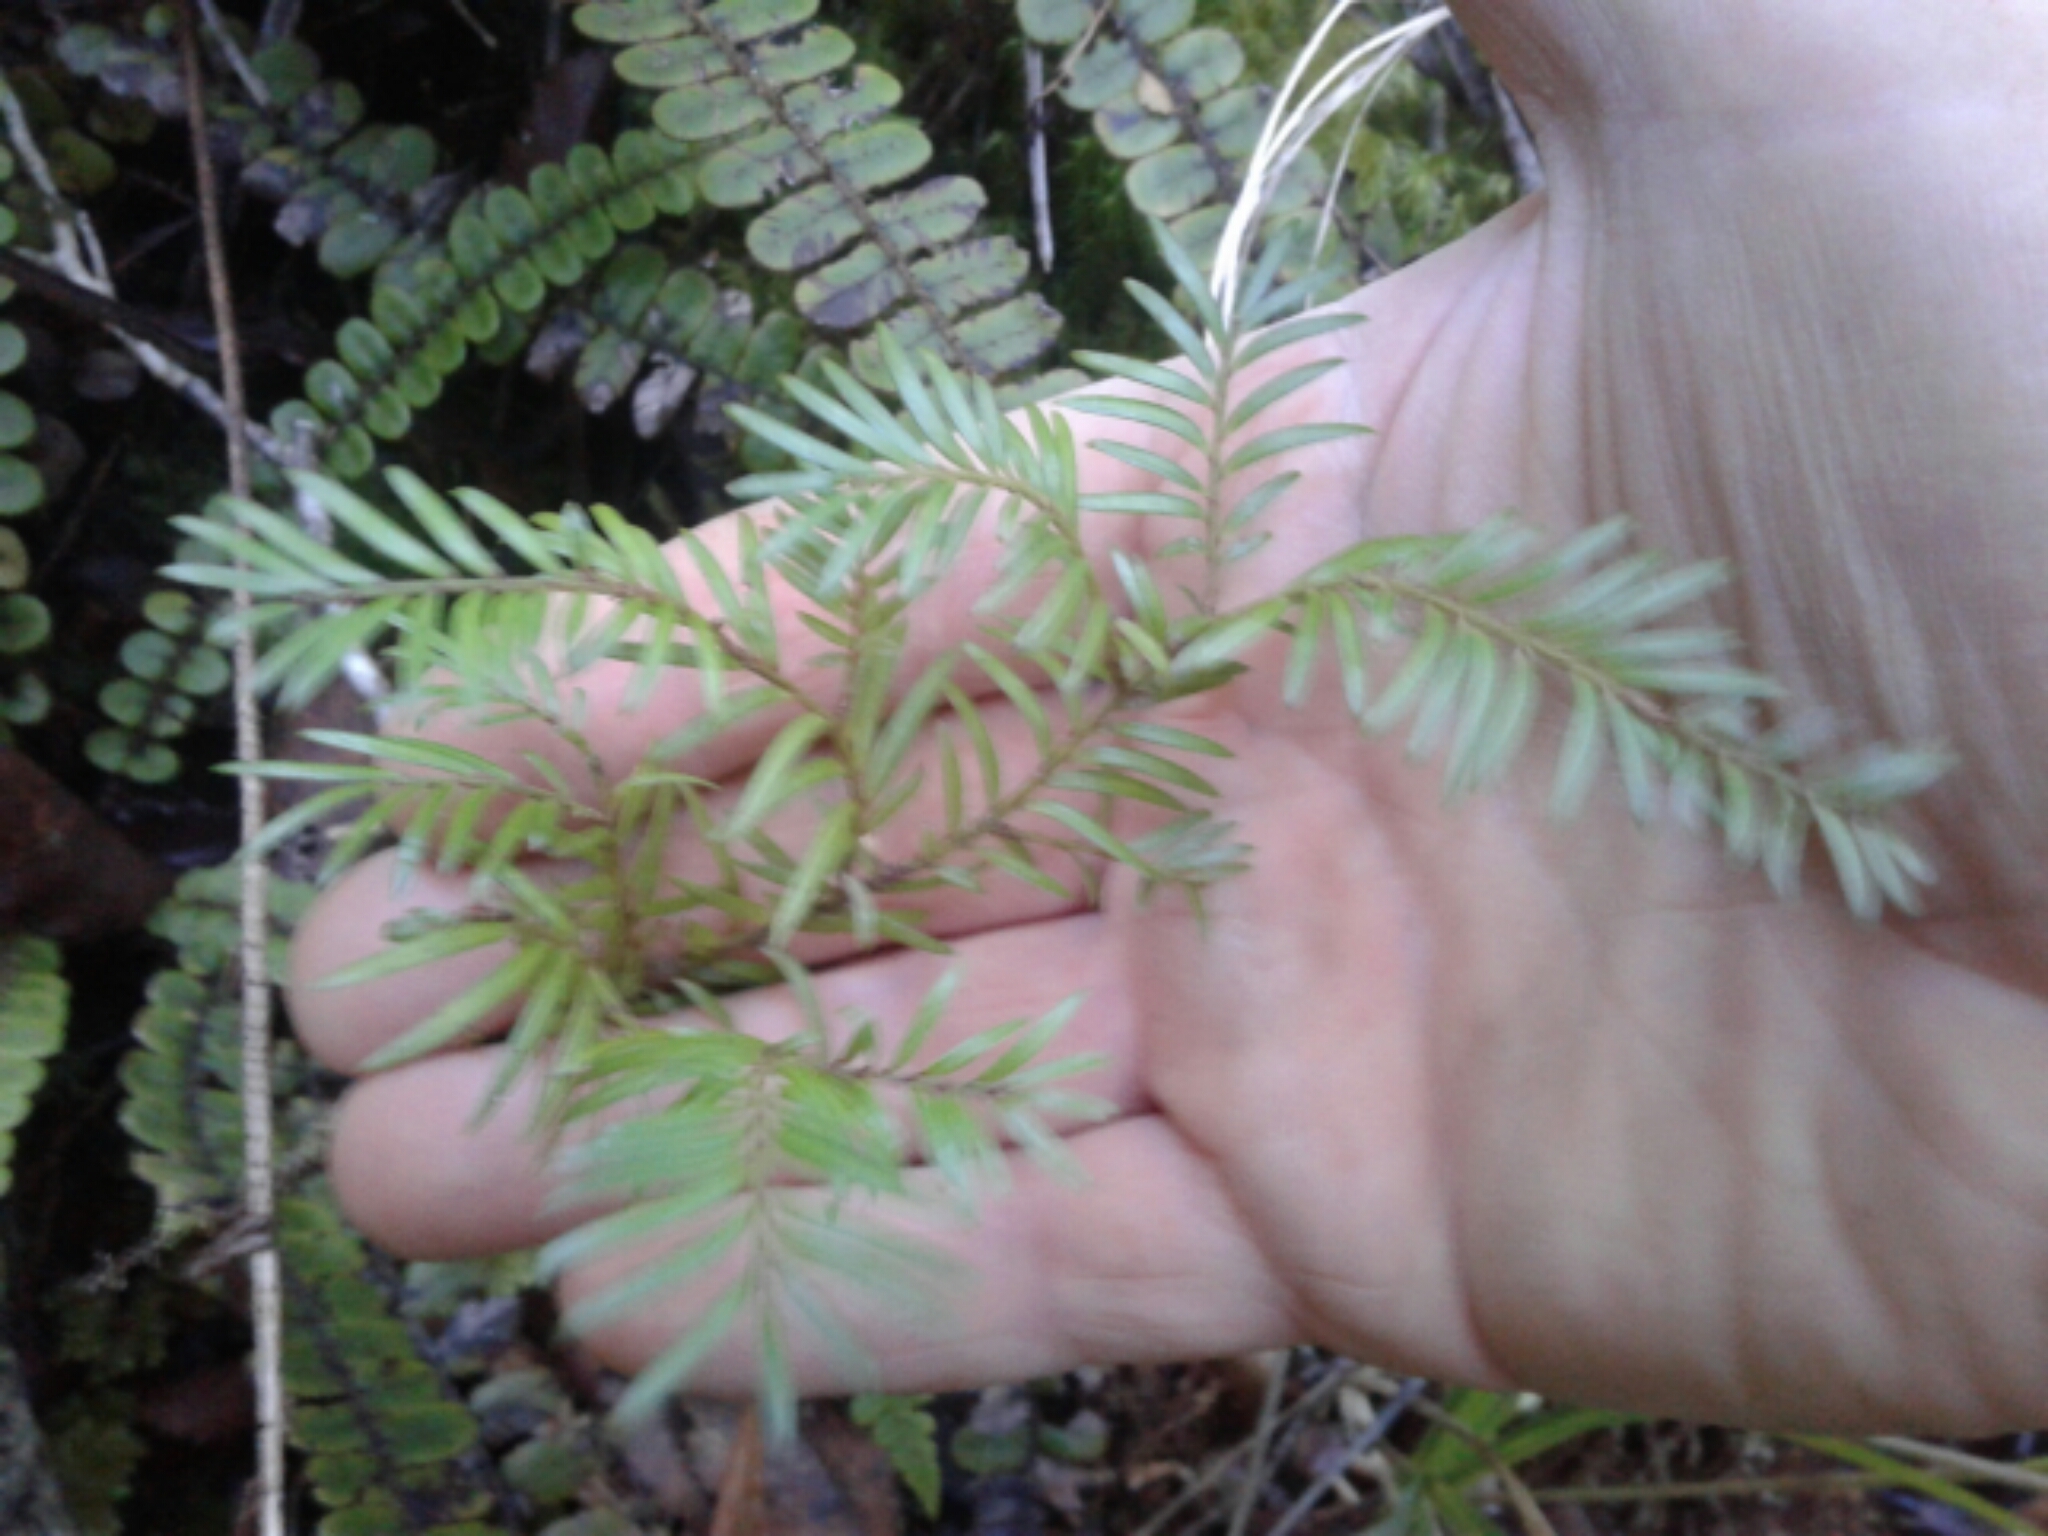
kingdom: Plantae
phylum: Tracheophyta
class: Pinopsida
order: Pinales
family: Podocarpaceae
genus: Prumnopitys
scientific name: Prumnopitys ferruginea
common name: Brown pine
